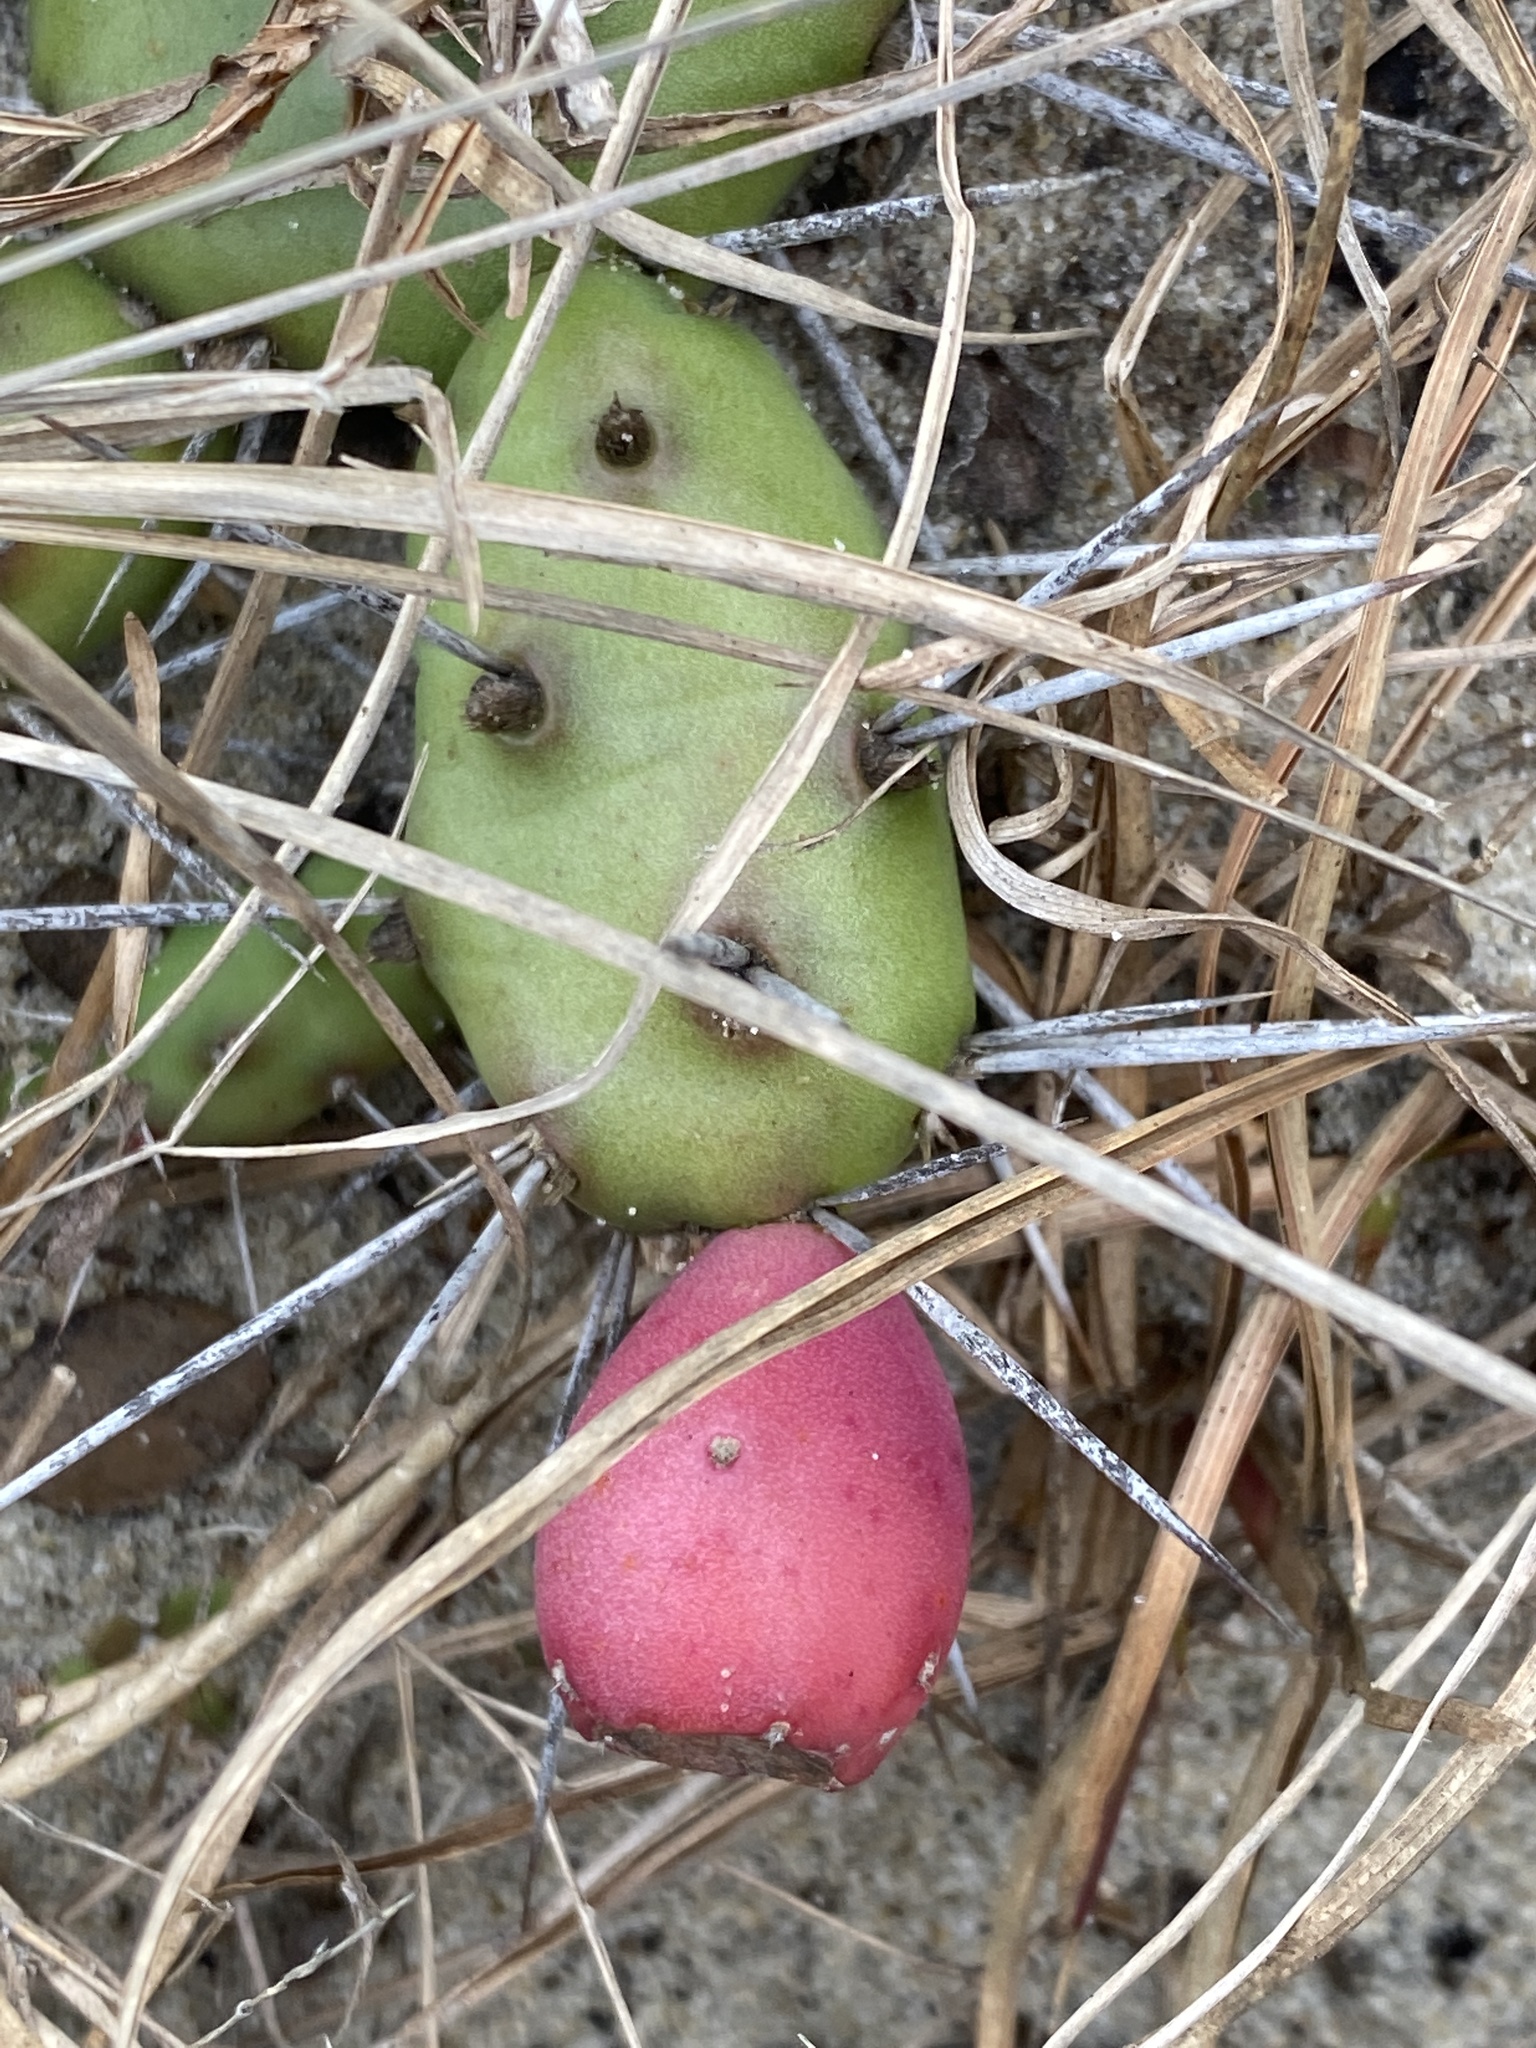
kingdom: Plantae
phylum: Tracheophyta
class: Magnoliopsida
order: Caryophyllales
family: Cactaceae
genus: Opuntia
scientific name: Opuntia drummondii
